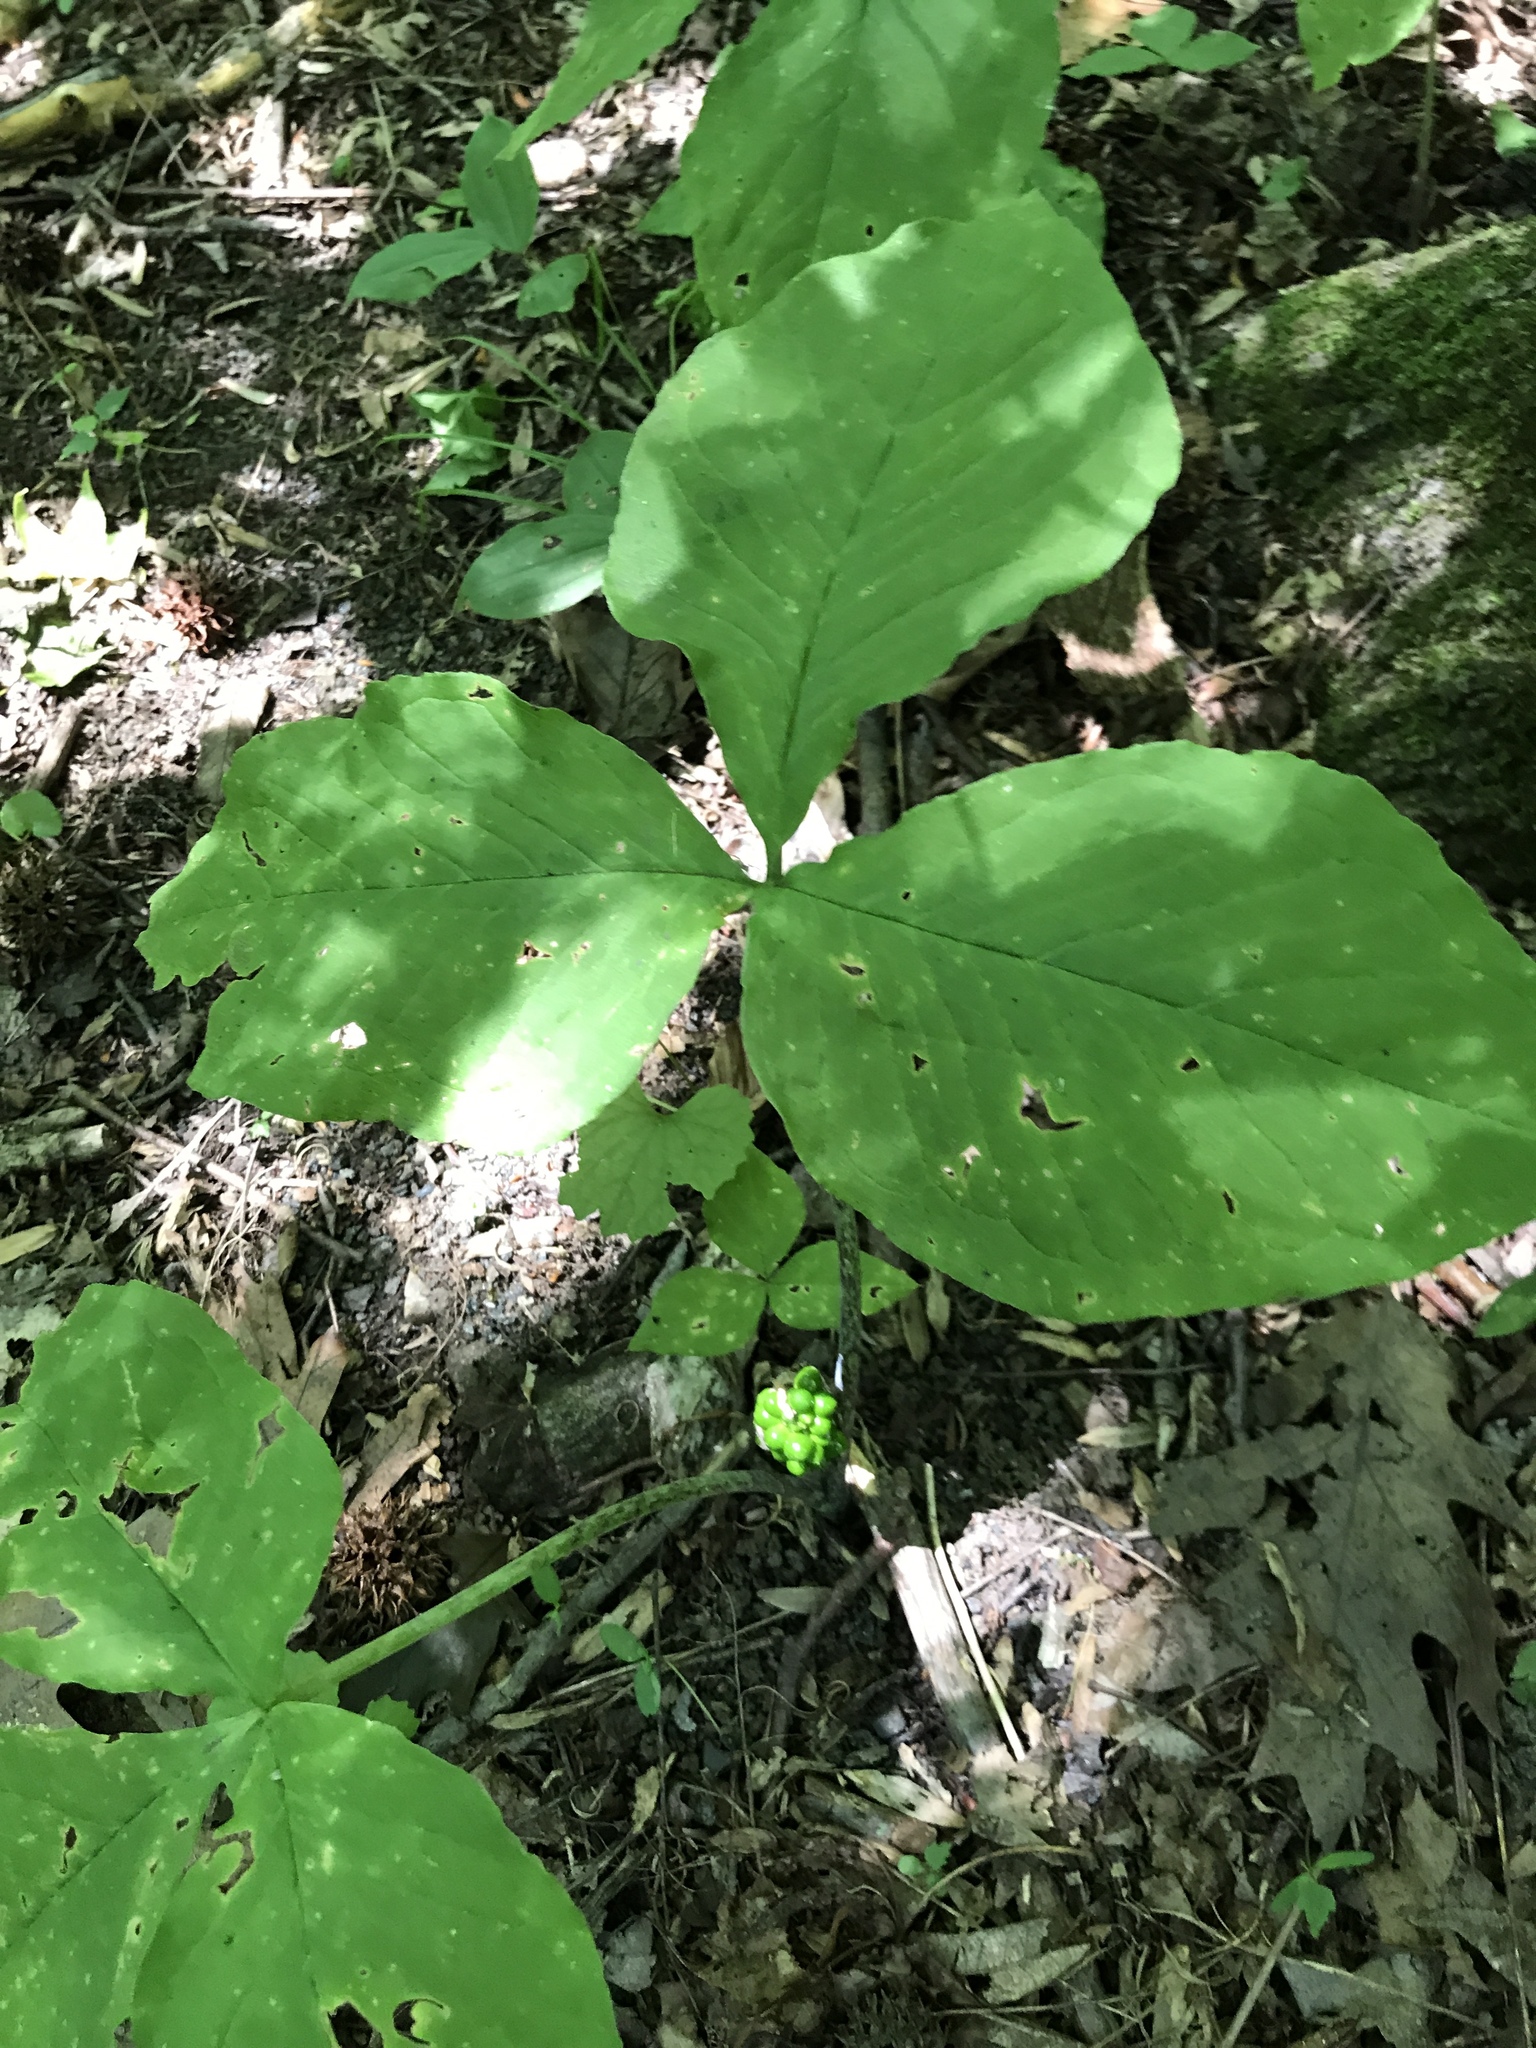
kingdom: Plantae
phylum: Tracheophyta
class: Liliopsida
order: Alismatales
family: Araceae
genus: Arisaema
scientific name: Arisaema triphyllum
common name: Jack-in-the-pulpit
